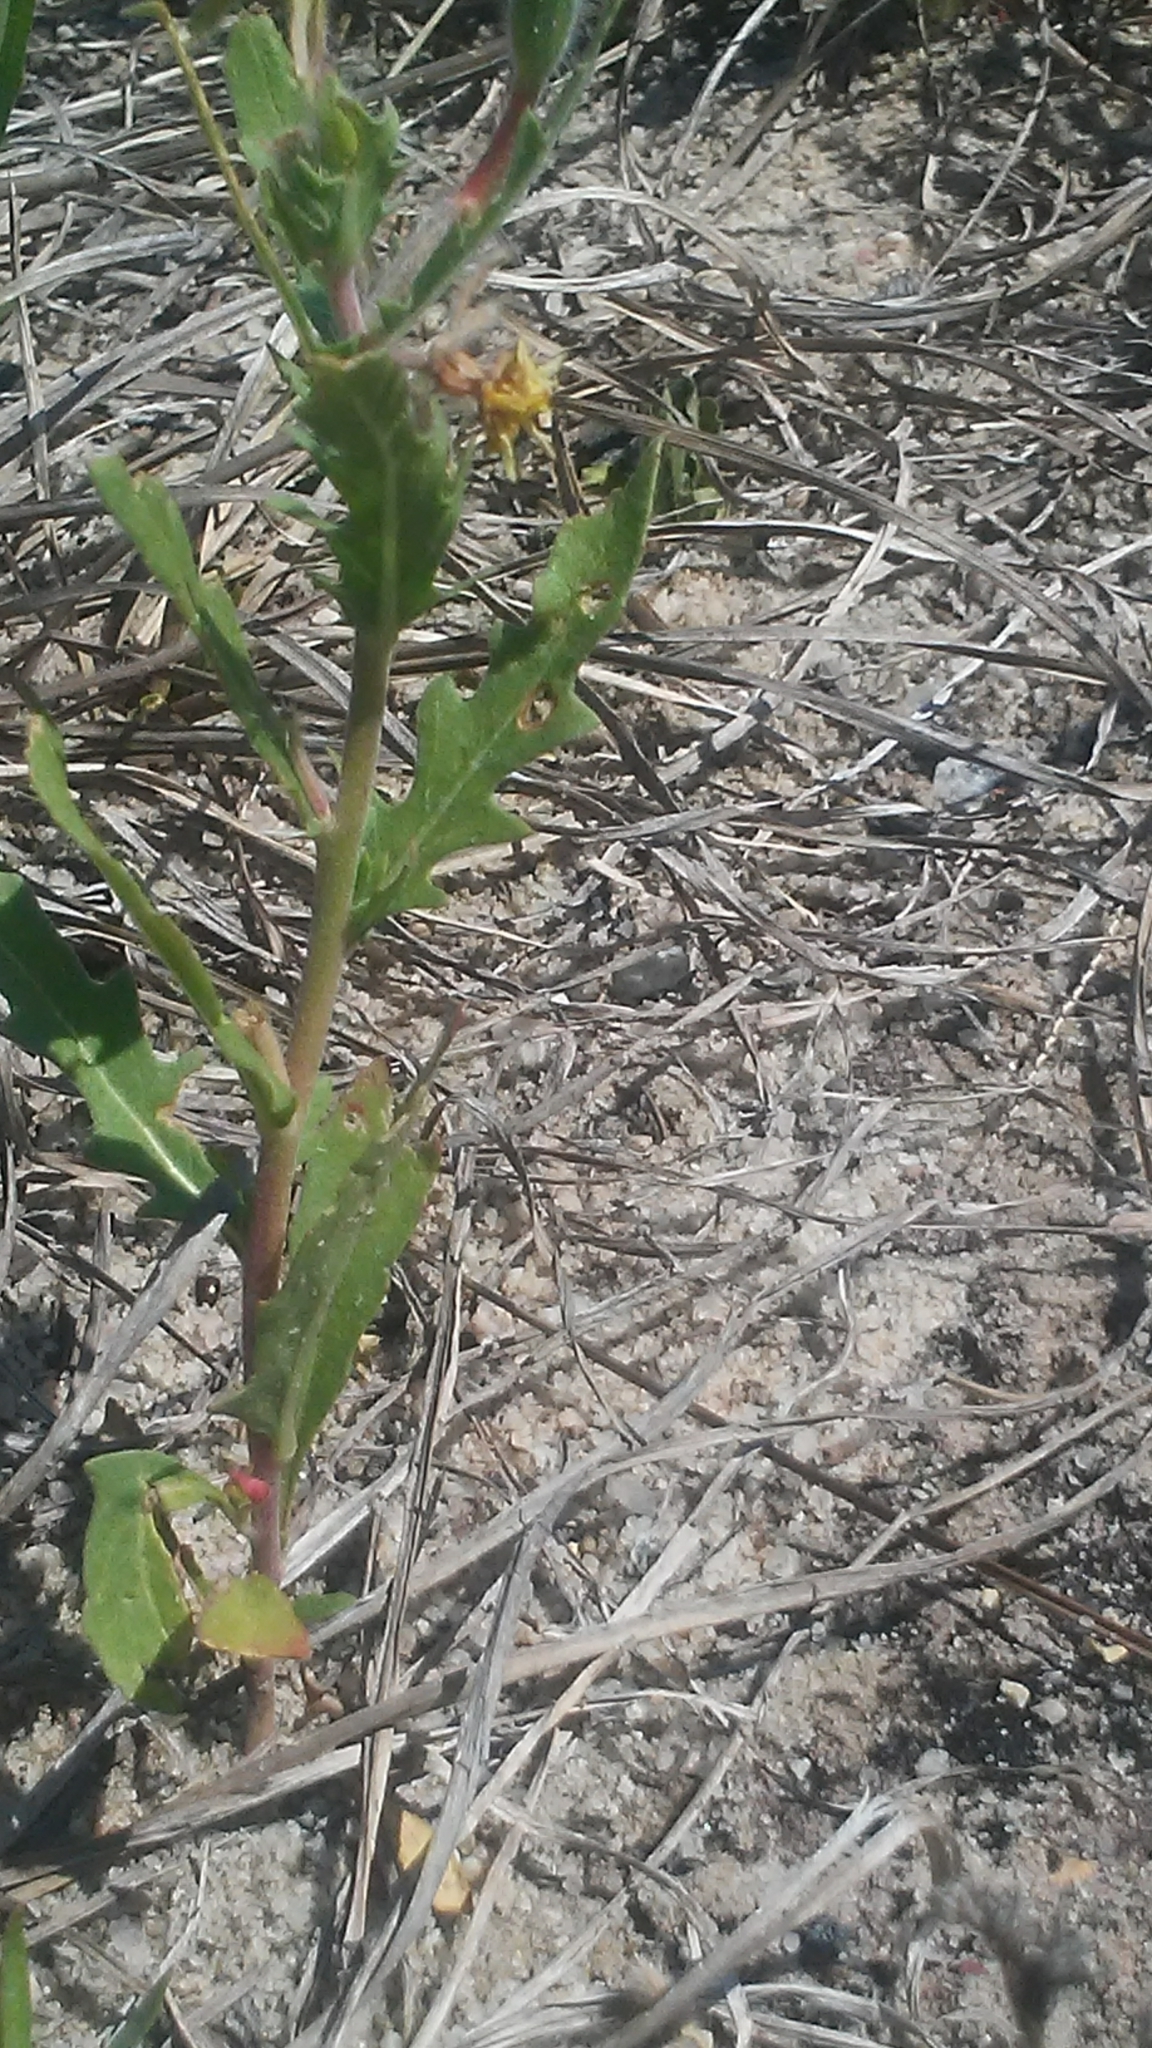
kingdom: Plantae
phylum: Tracheophyta
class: Magnoliopsida
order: Myrtales
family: Onagraceae
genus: Oenothera
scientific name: Oenothera laciniata
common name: Cut-leaved evening-primrose
